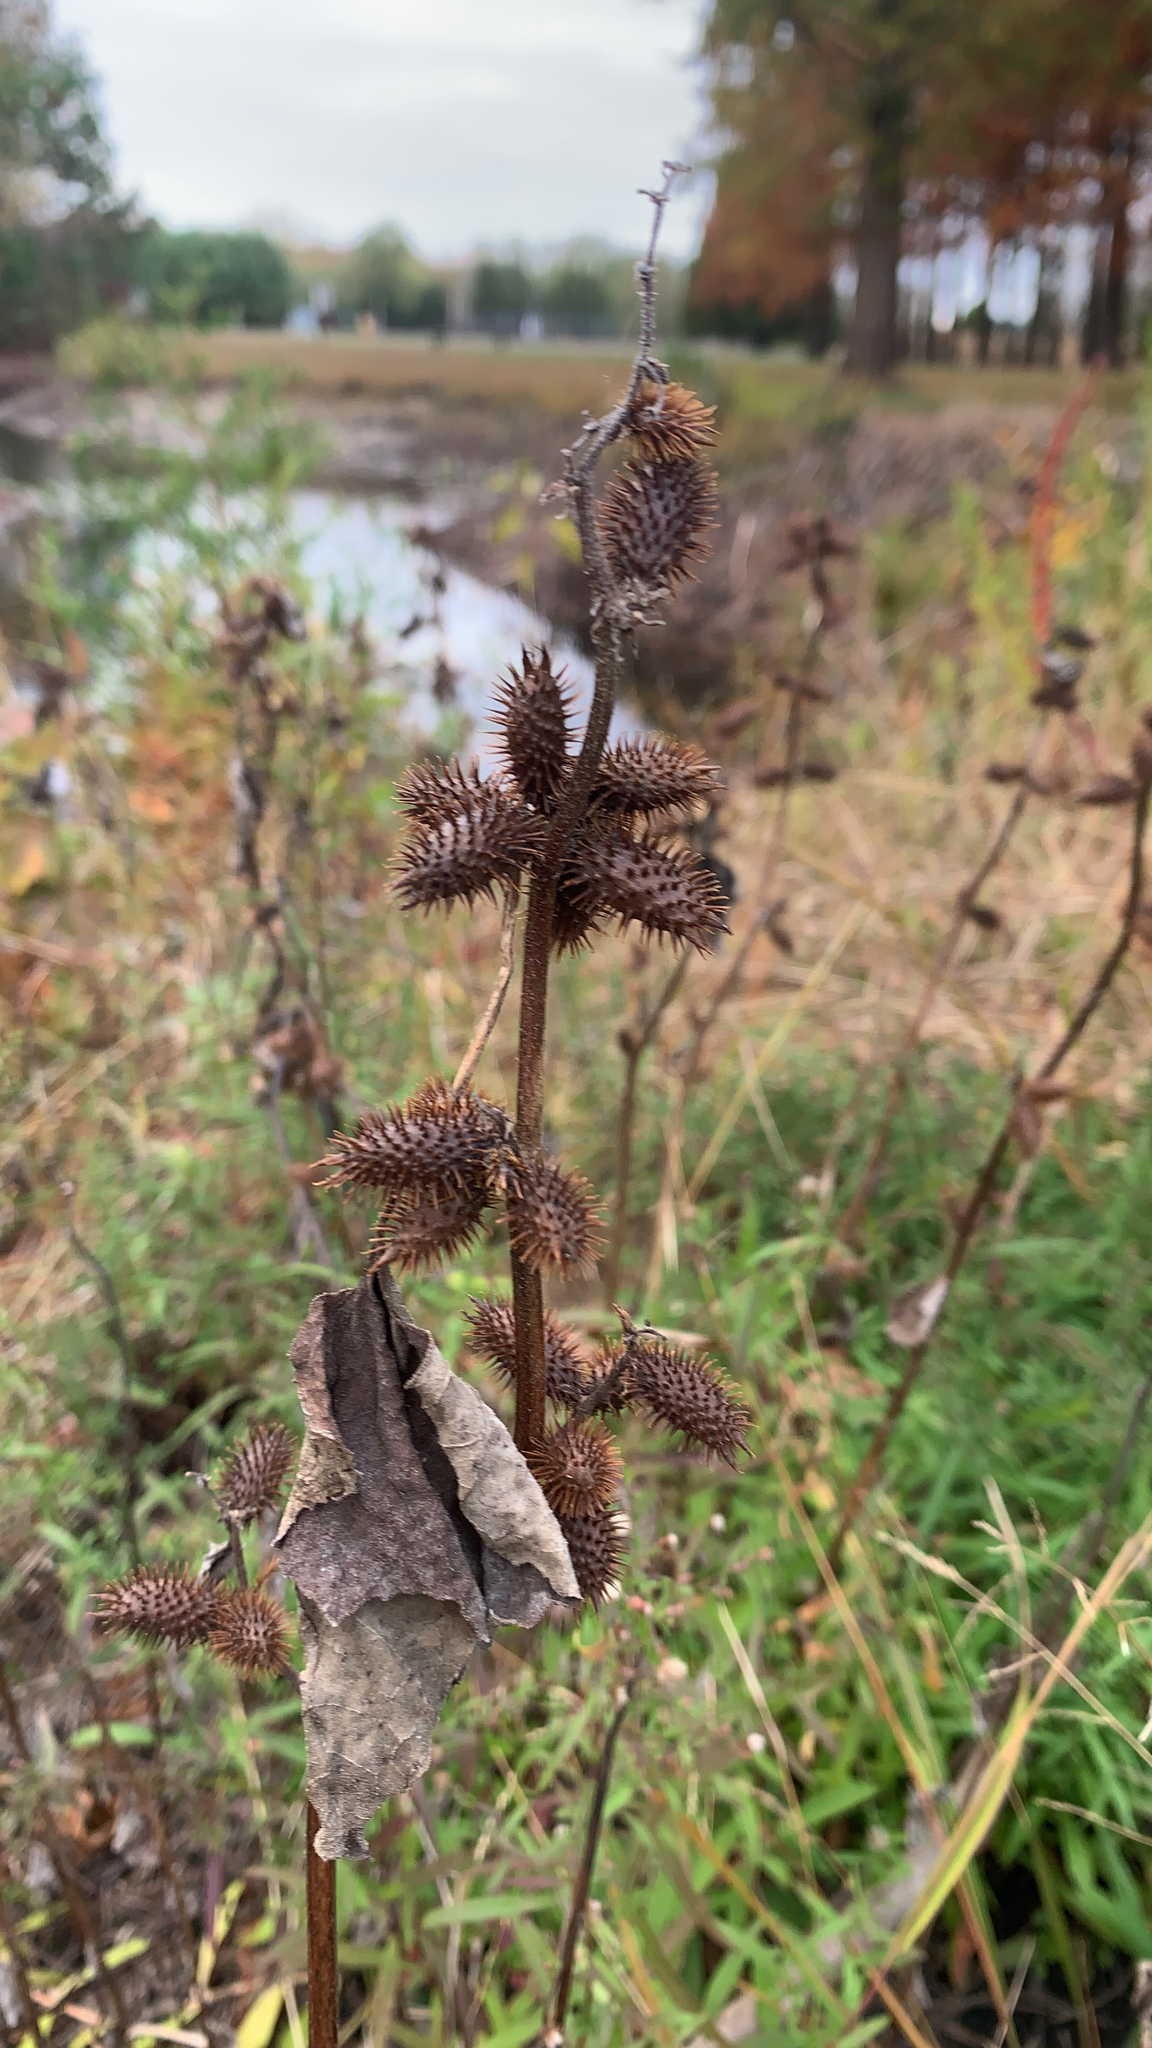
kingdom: Plantae
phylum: Tracheophyta
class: Magnoliopsida
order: Asterales
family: Asteraceae
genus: Xanthium
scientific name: Xanthium strumarium
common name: Rough cocklebur
